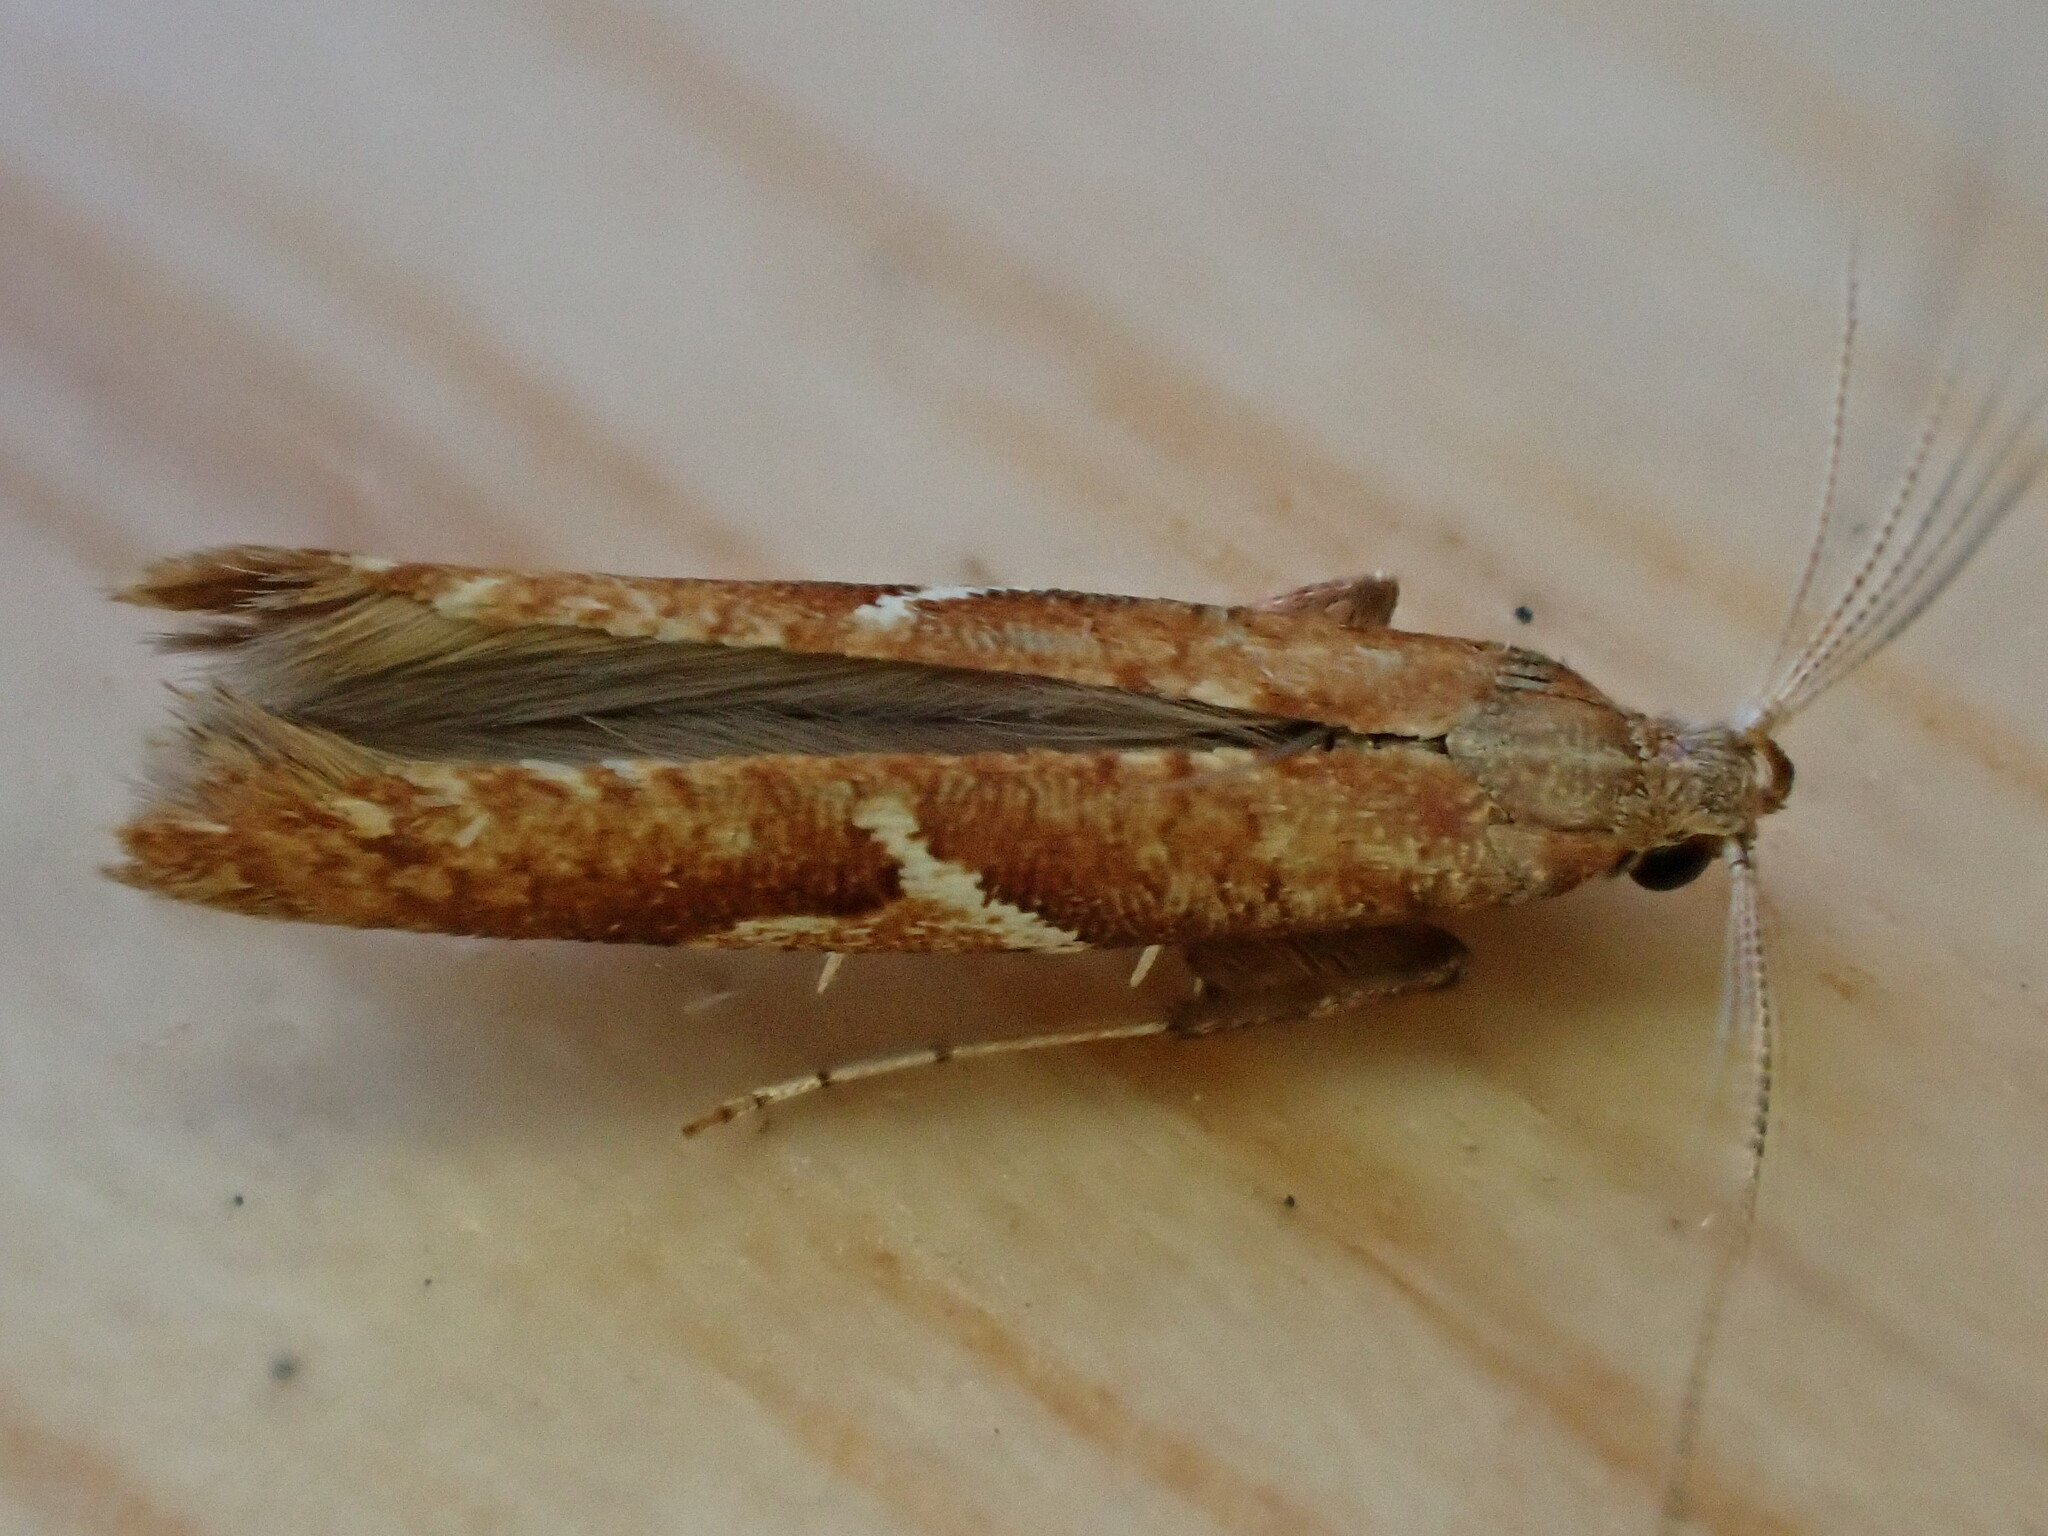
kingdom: Animalia
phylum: Arthropoda
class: Insecta
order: Lepidoptera
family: Gracillariidae
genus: Caloptilia
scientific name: Caloptilia stigmatella
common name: White-triangle slender
